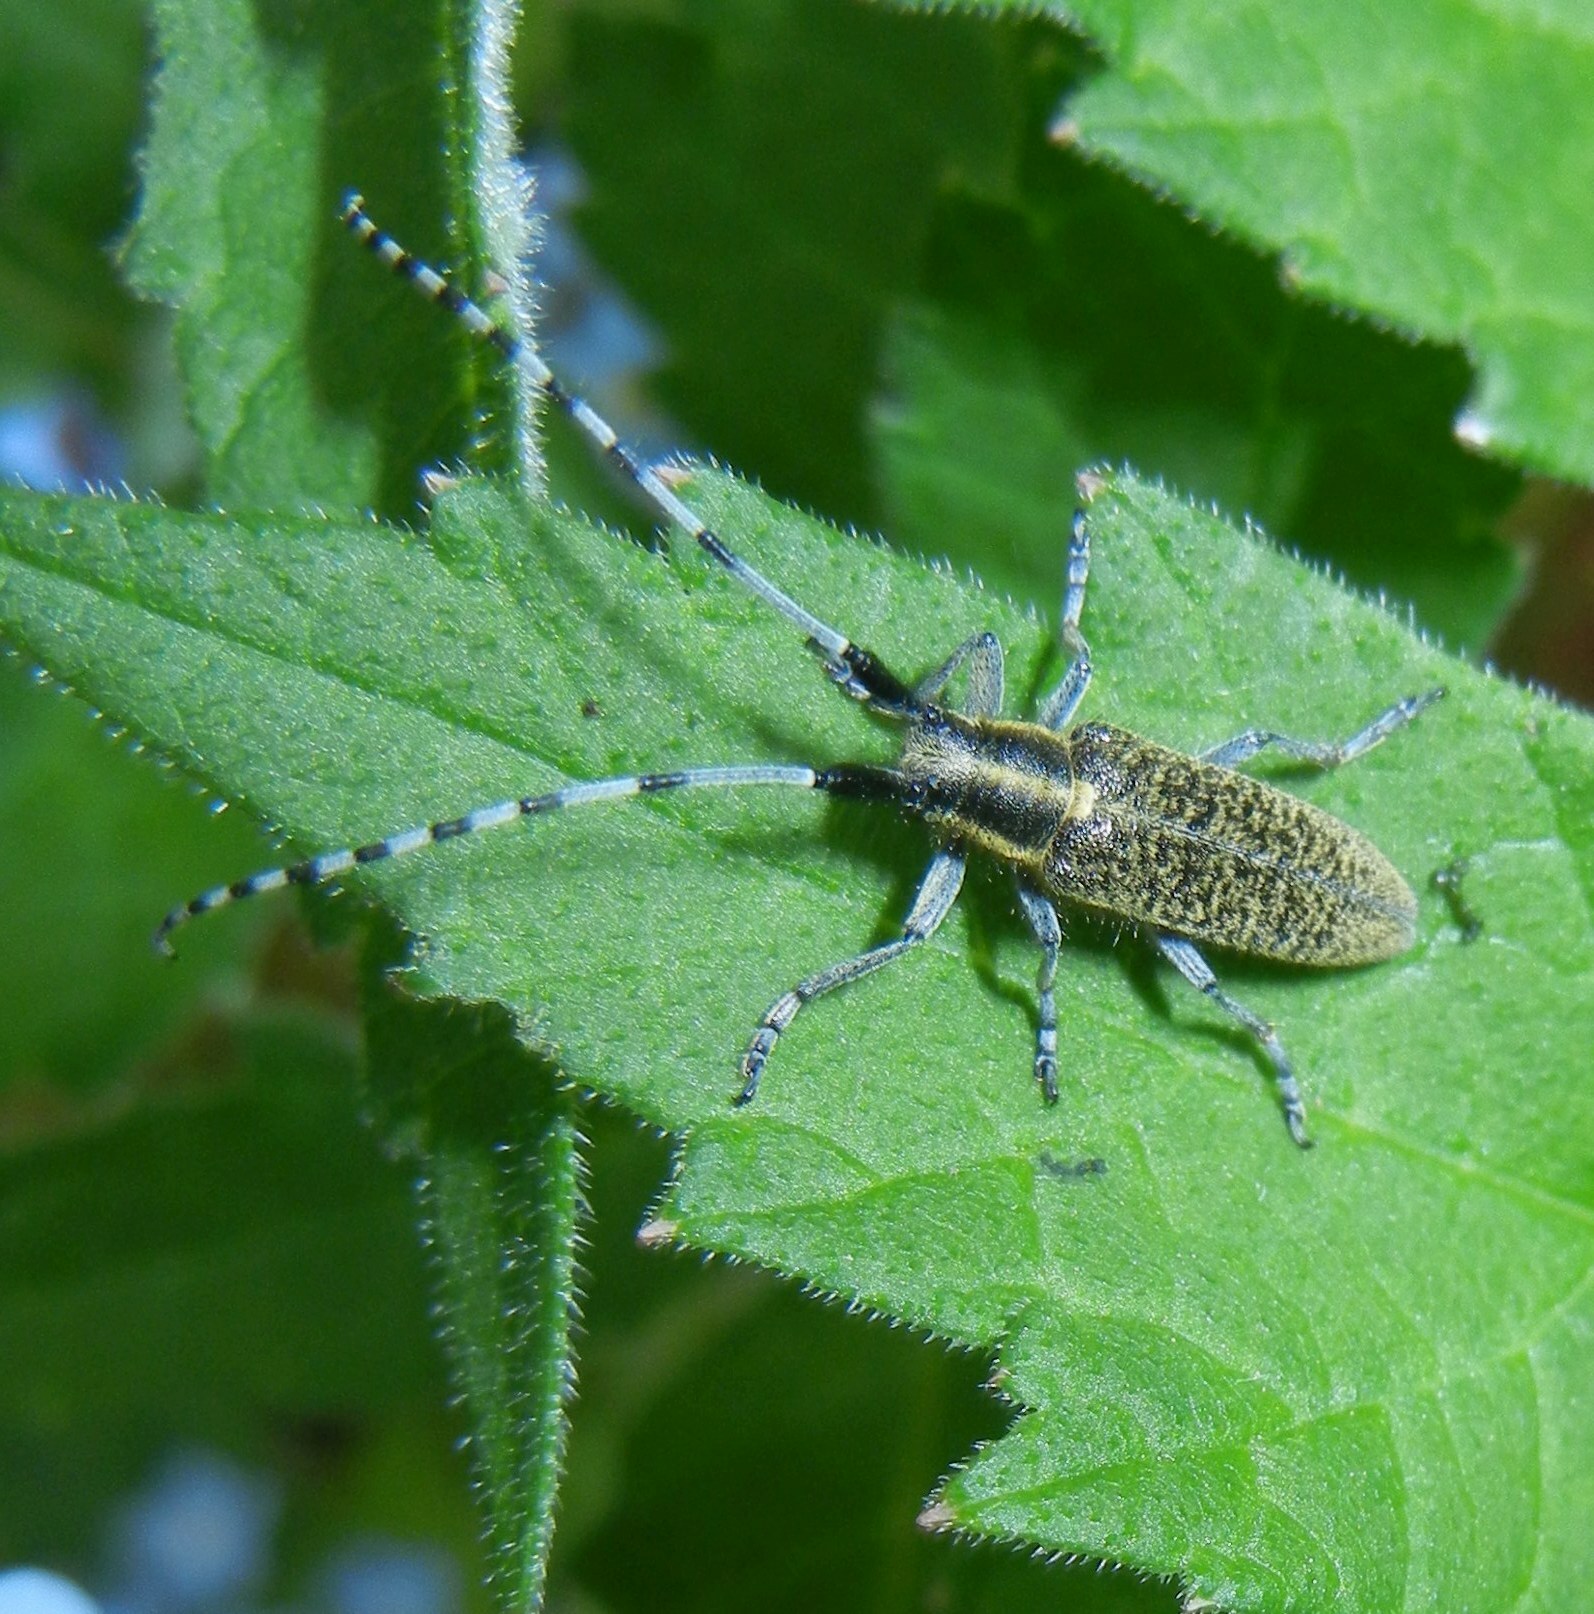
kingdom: Animalia
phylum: Arthropoda
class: Insecta
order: Coleoptera
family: Cerambycidae
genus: Agapanthia
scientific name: Agapanthia villosoviridescens
